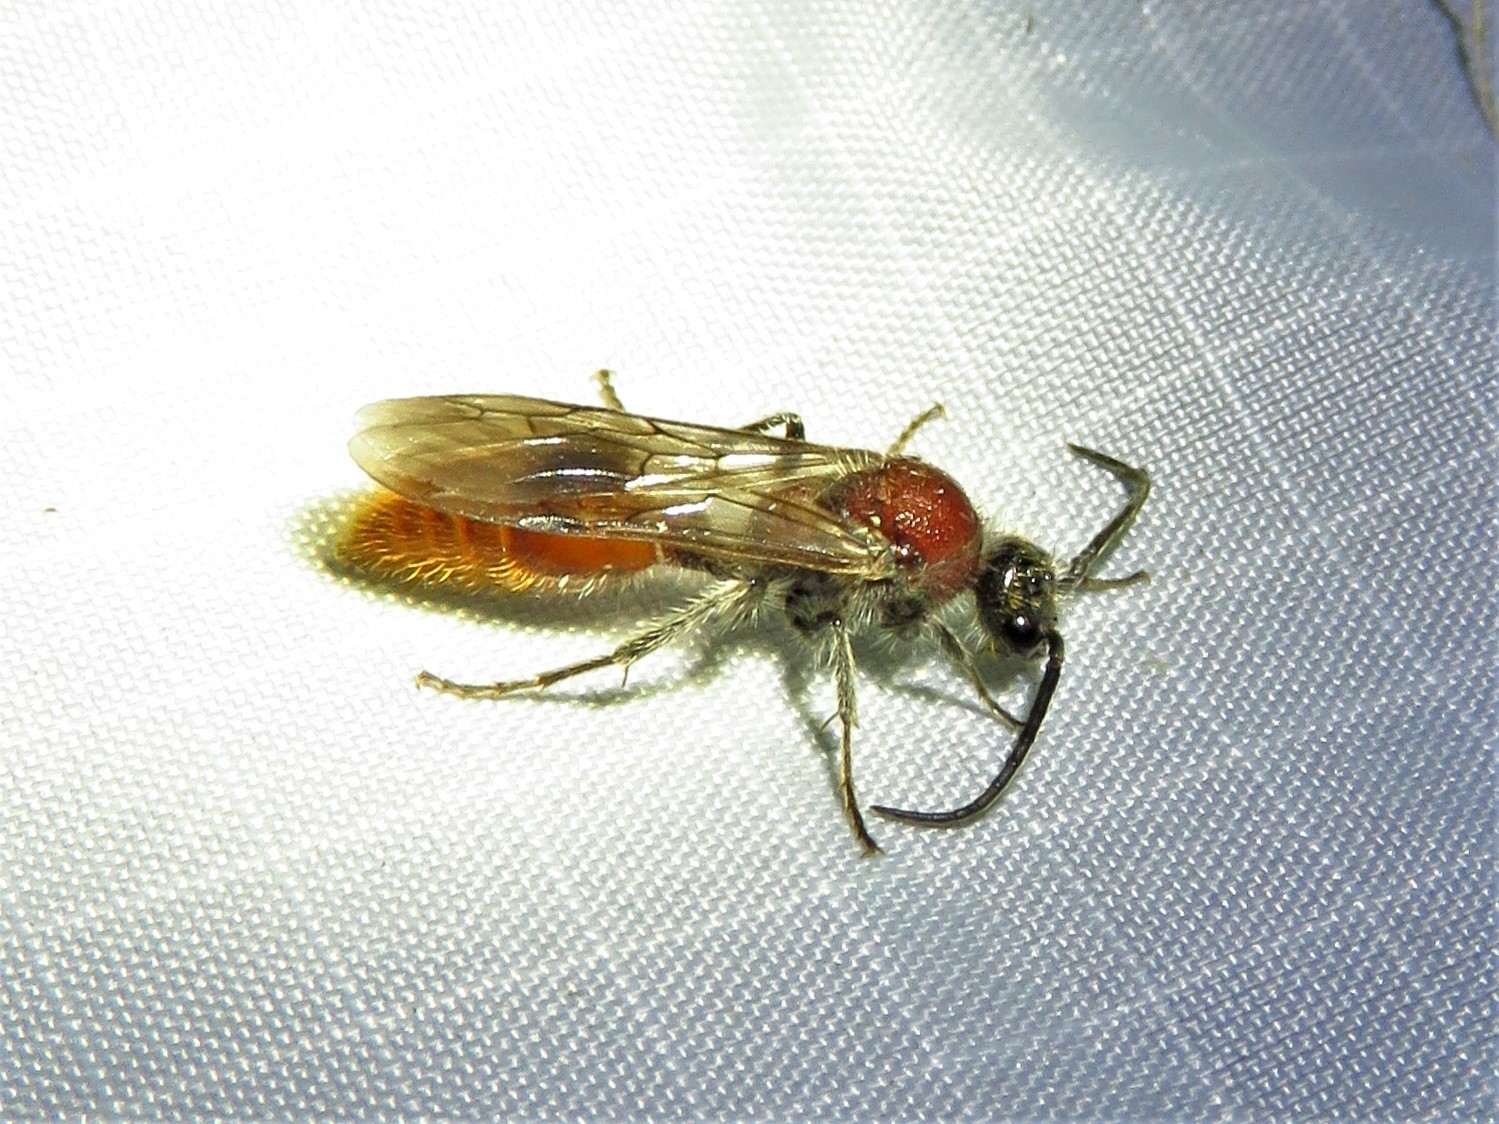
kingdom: Animalia
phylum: Arthropoda
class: Insecta
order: Hymenoptera
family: Mutillidae
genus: Sphaeropthalma
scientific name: Sphaeropthalma imperialis
